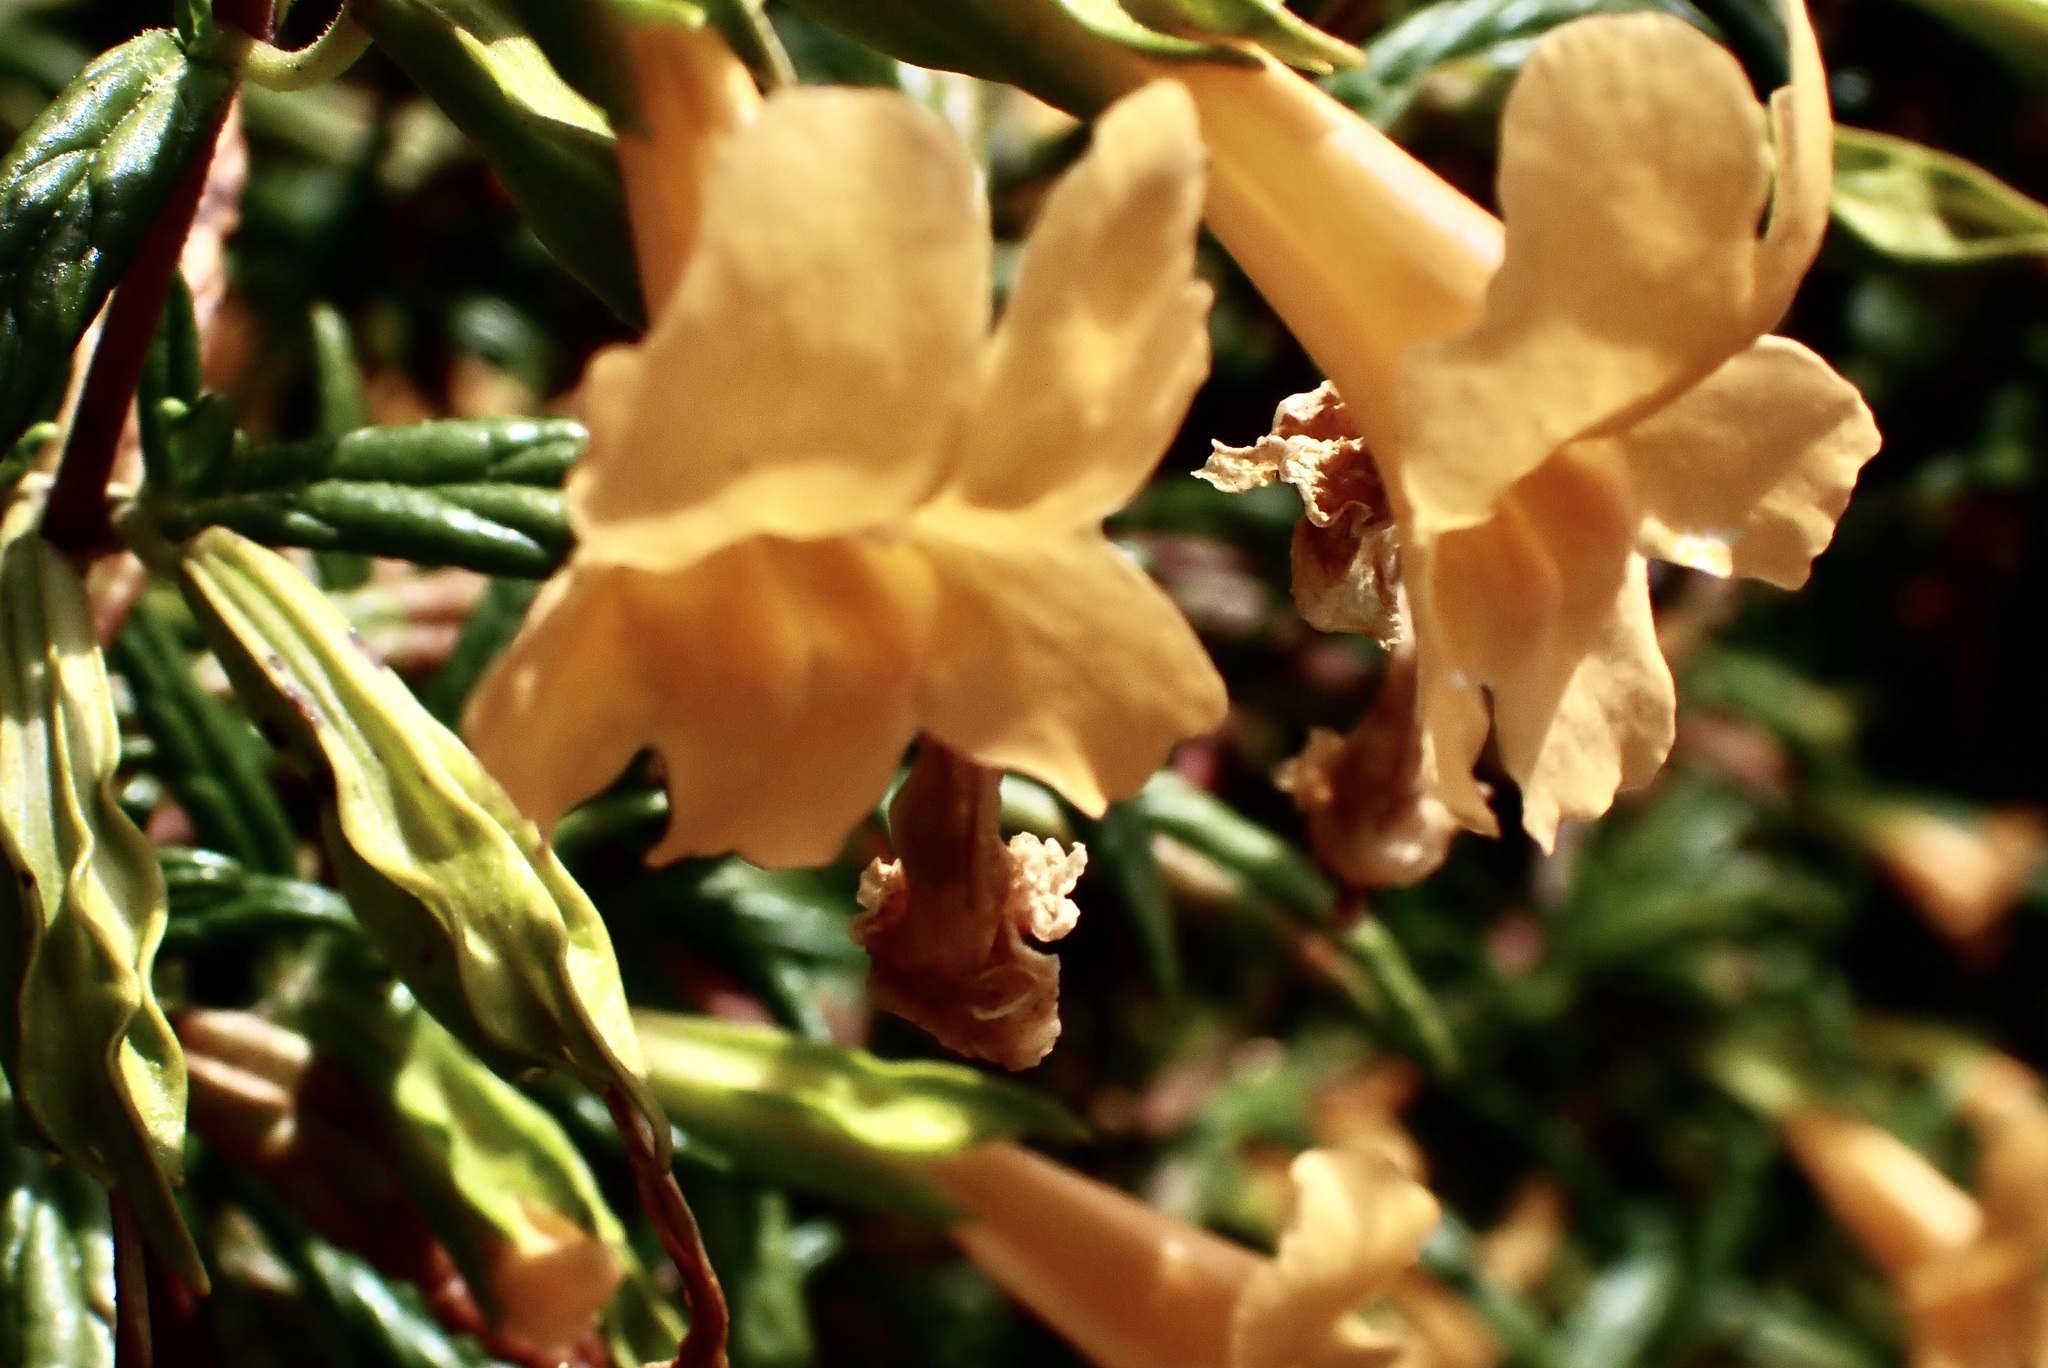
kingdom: Plantae
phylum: Tracheophyta
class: Magnoliopsida
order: Lamiales
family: Phrymaceae
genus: Diplacus
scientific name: Diplacus aurantiacus
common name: Bush monkey-flower
